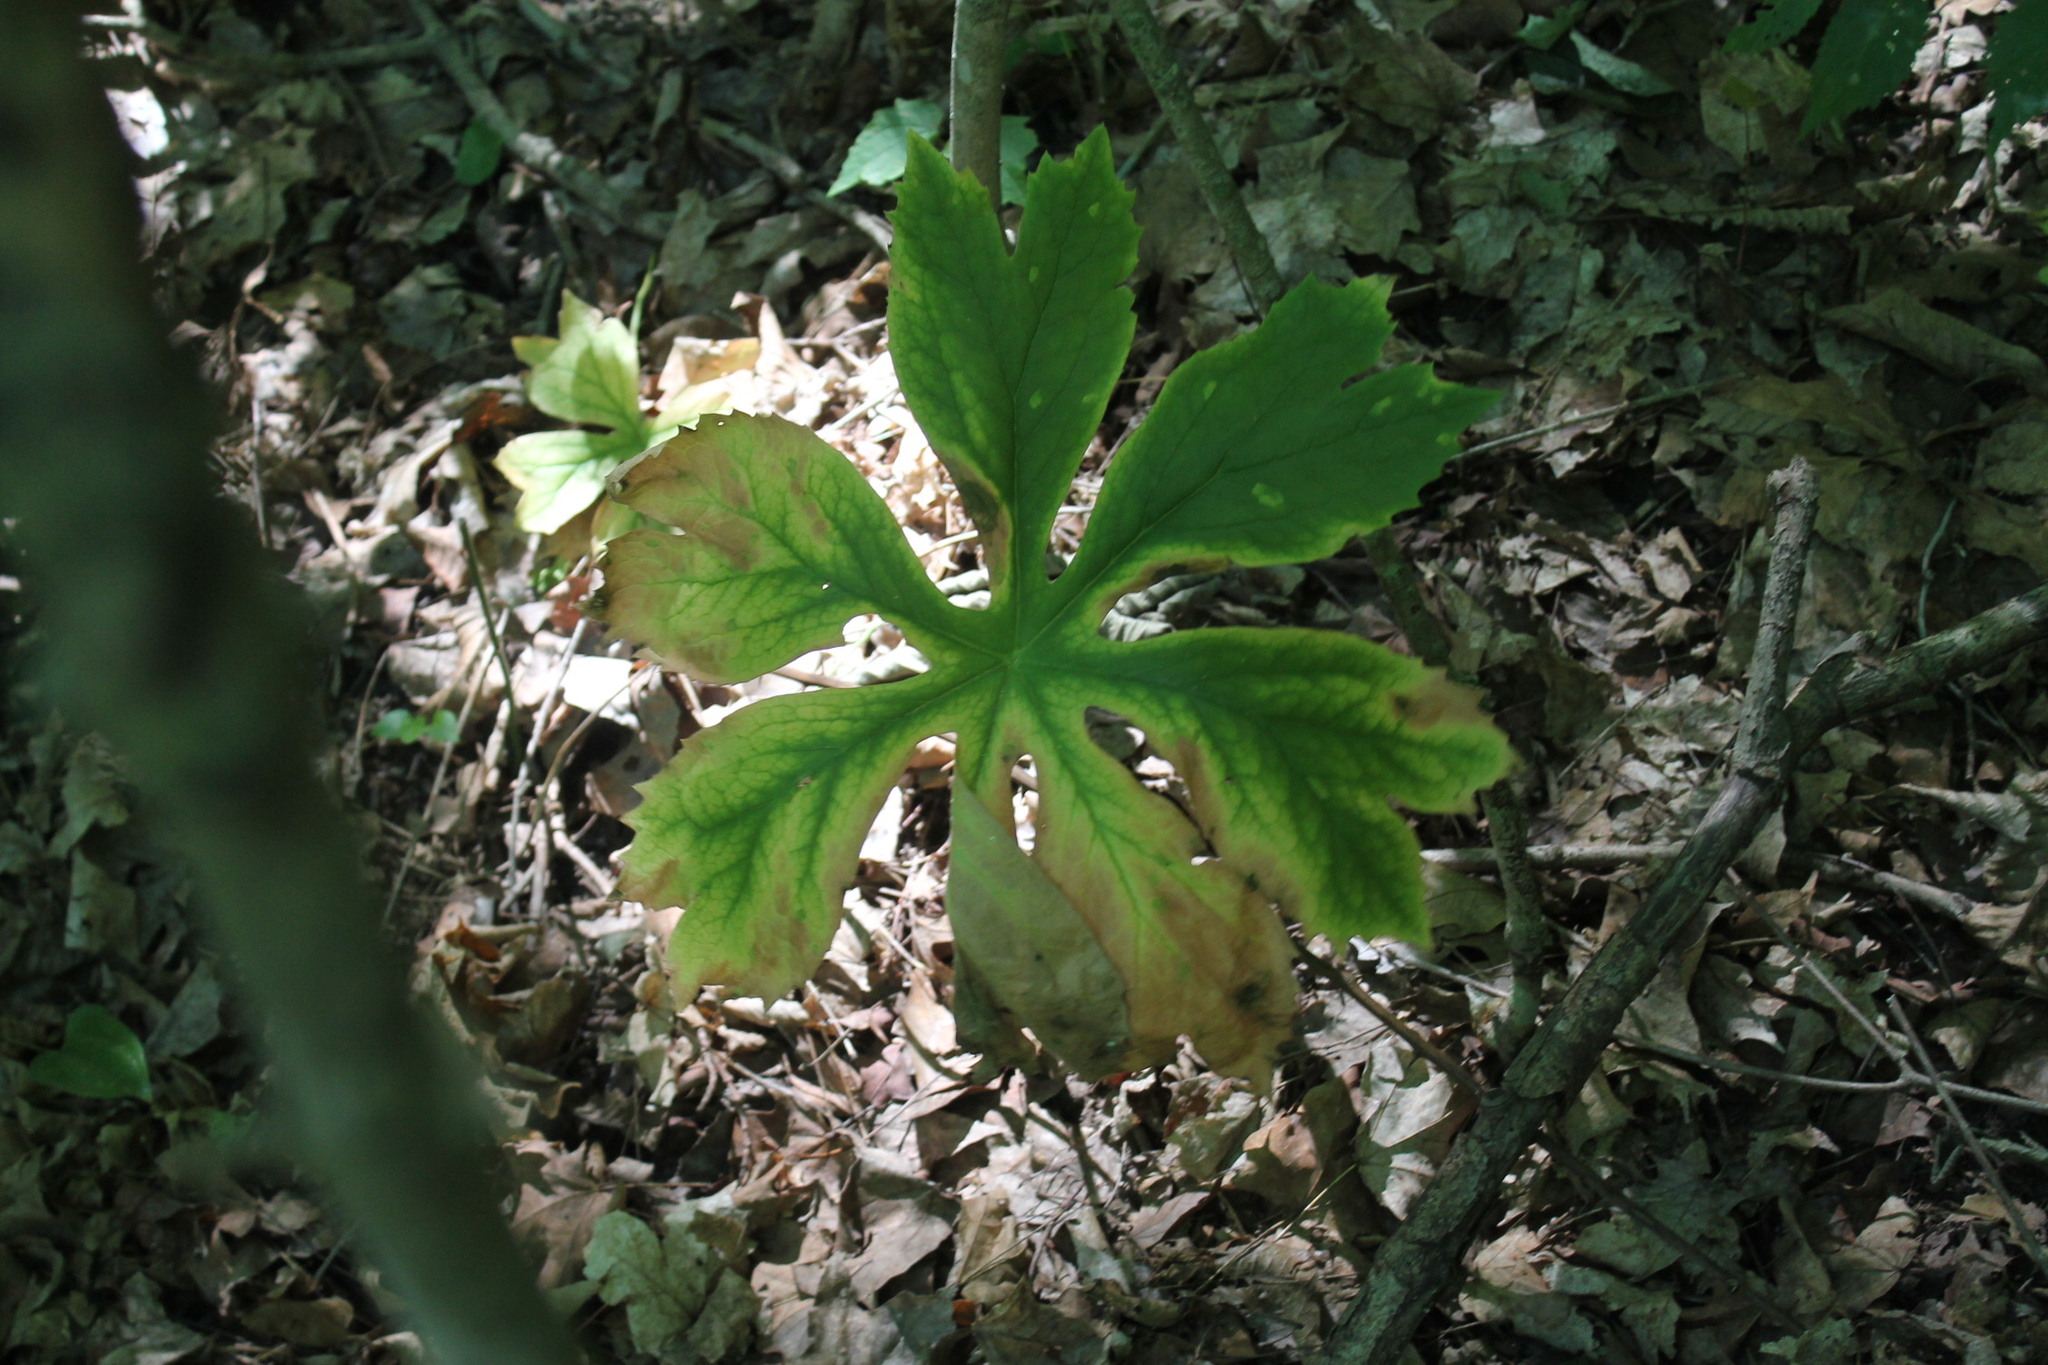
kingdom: Plantae
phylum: Tracheophyta
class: Magnoliopsida
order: Ranunculales
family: Berberidaceae
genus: Podophyllum
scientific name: Podophyllum peltatum
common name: Wild mandrake
